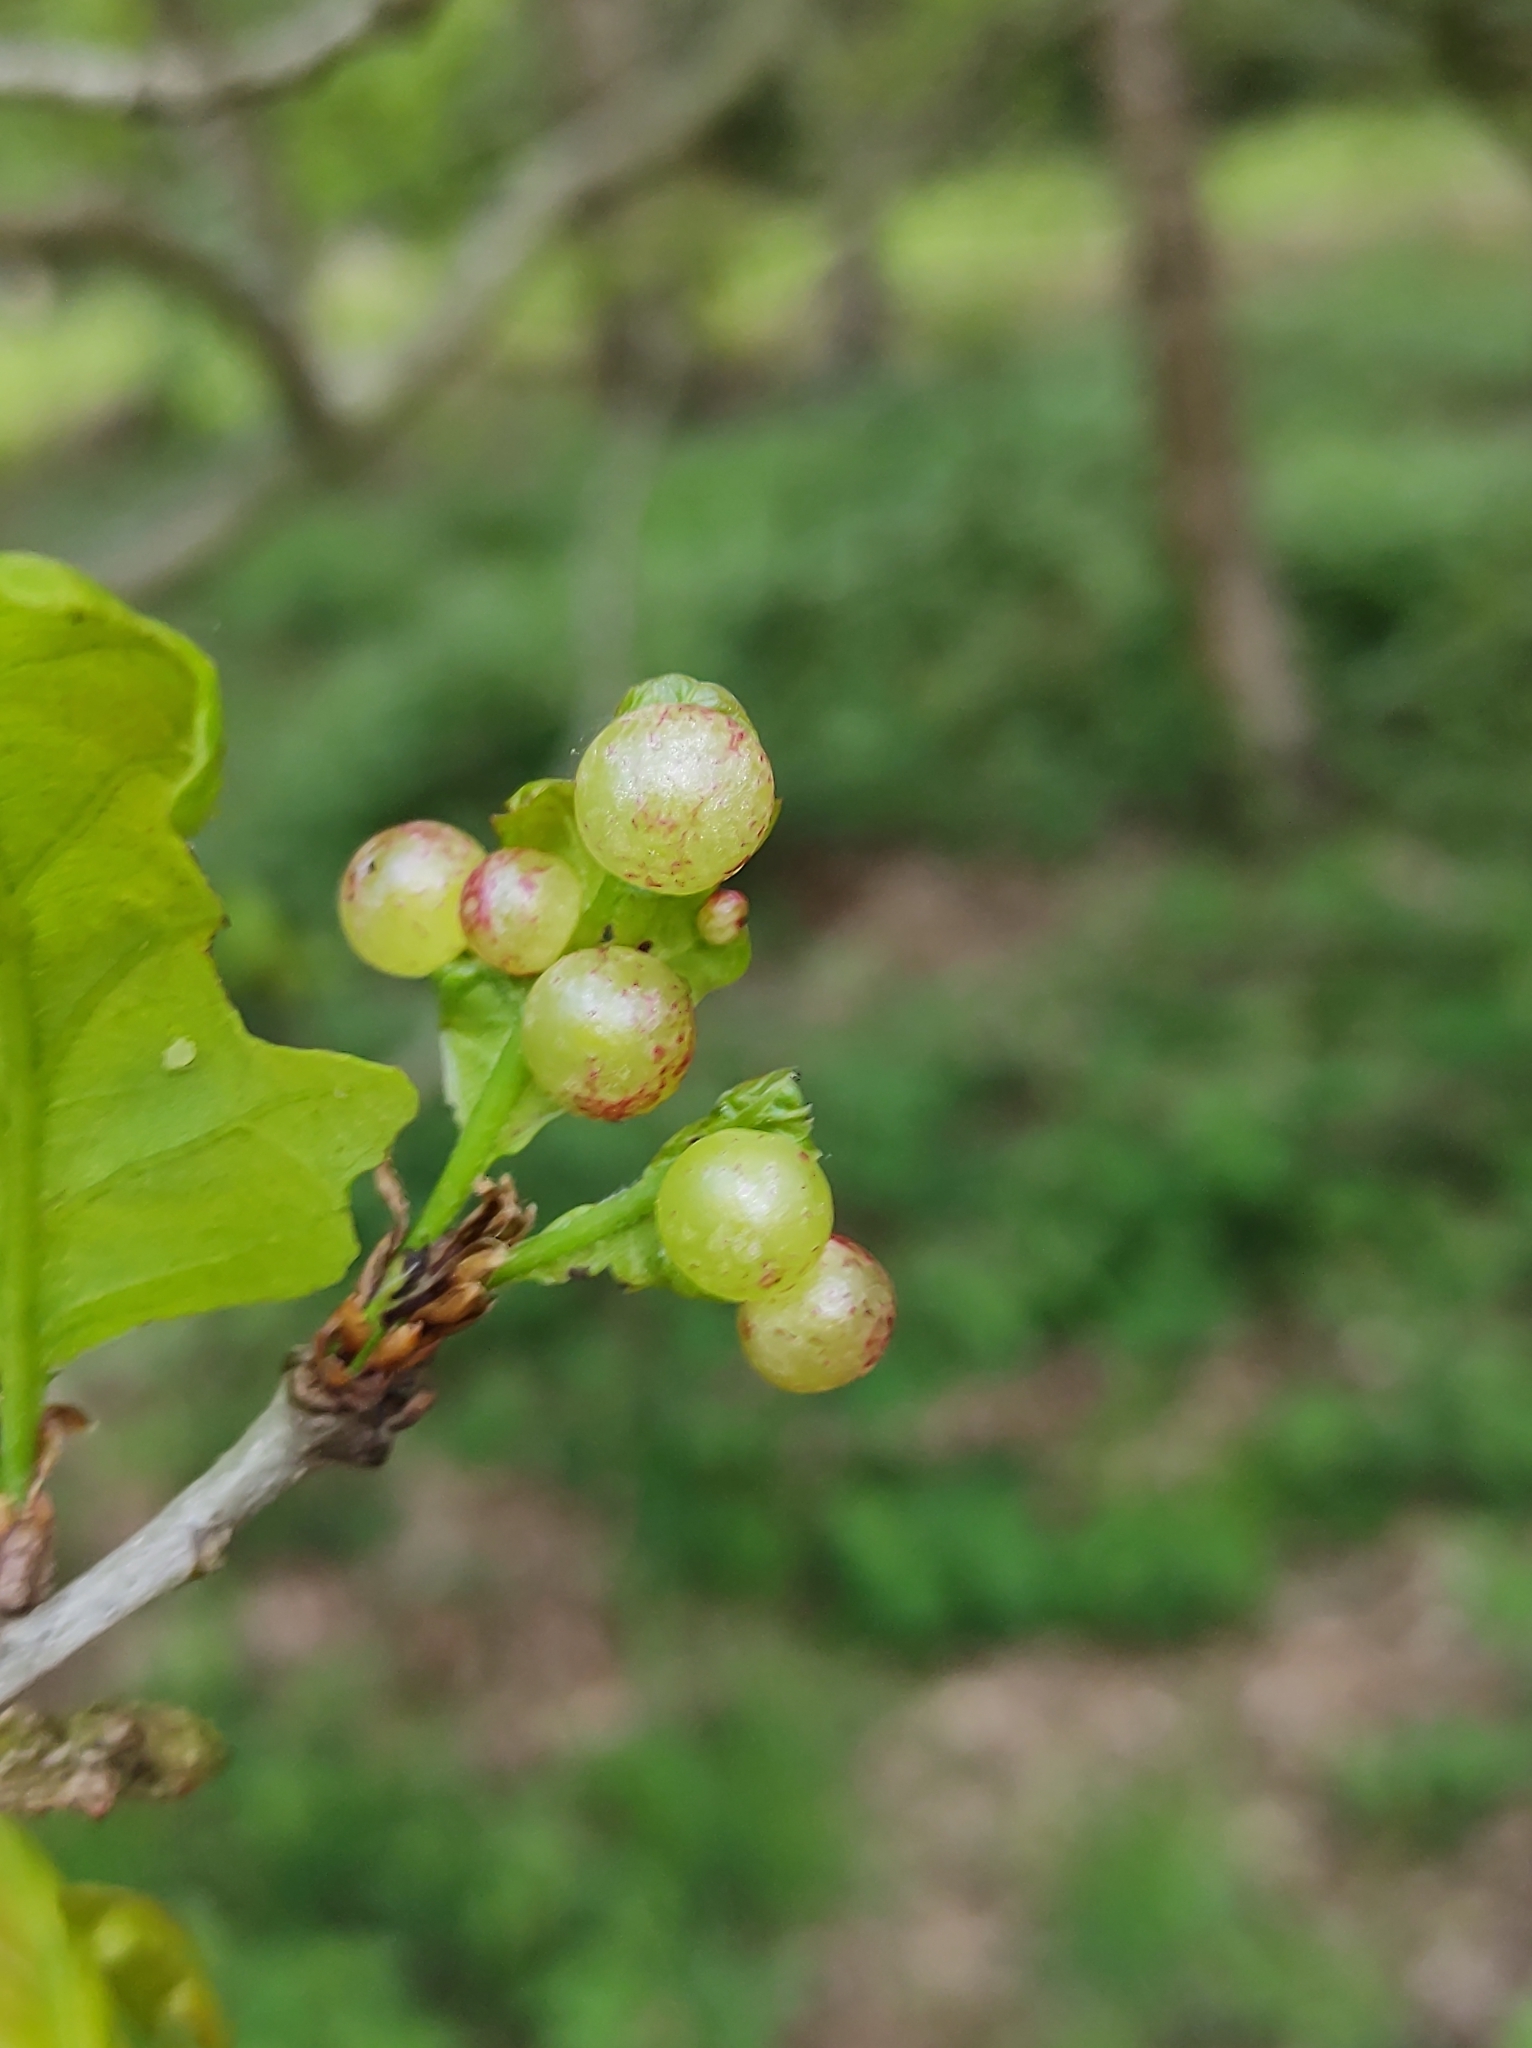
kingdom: Animalia
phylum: Arthropoda
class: Insecta
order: Hymenoptera
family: Cynipidae
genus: Neuroterus
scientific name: Neuroterus quercusbaccarum
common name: Common spangle gall
